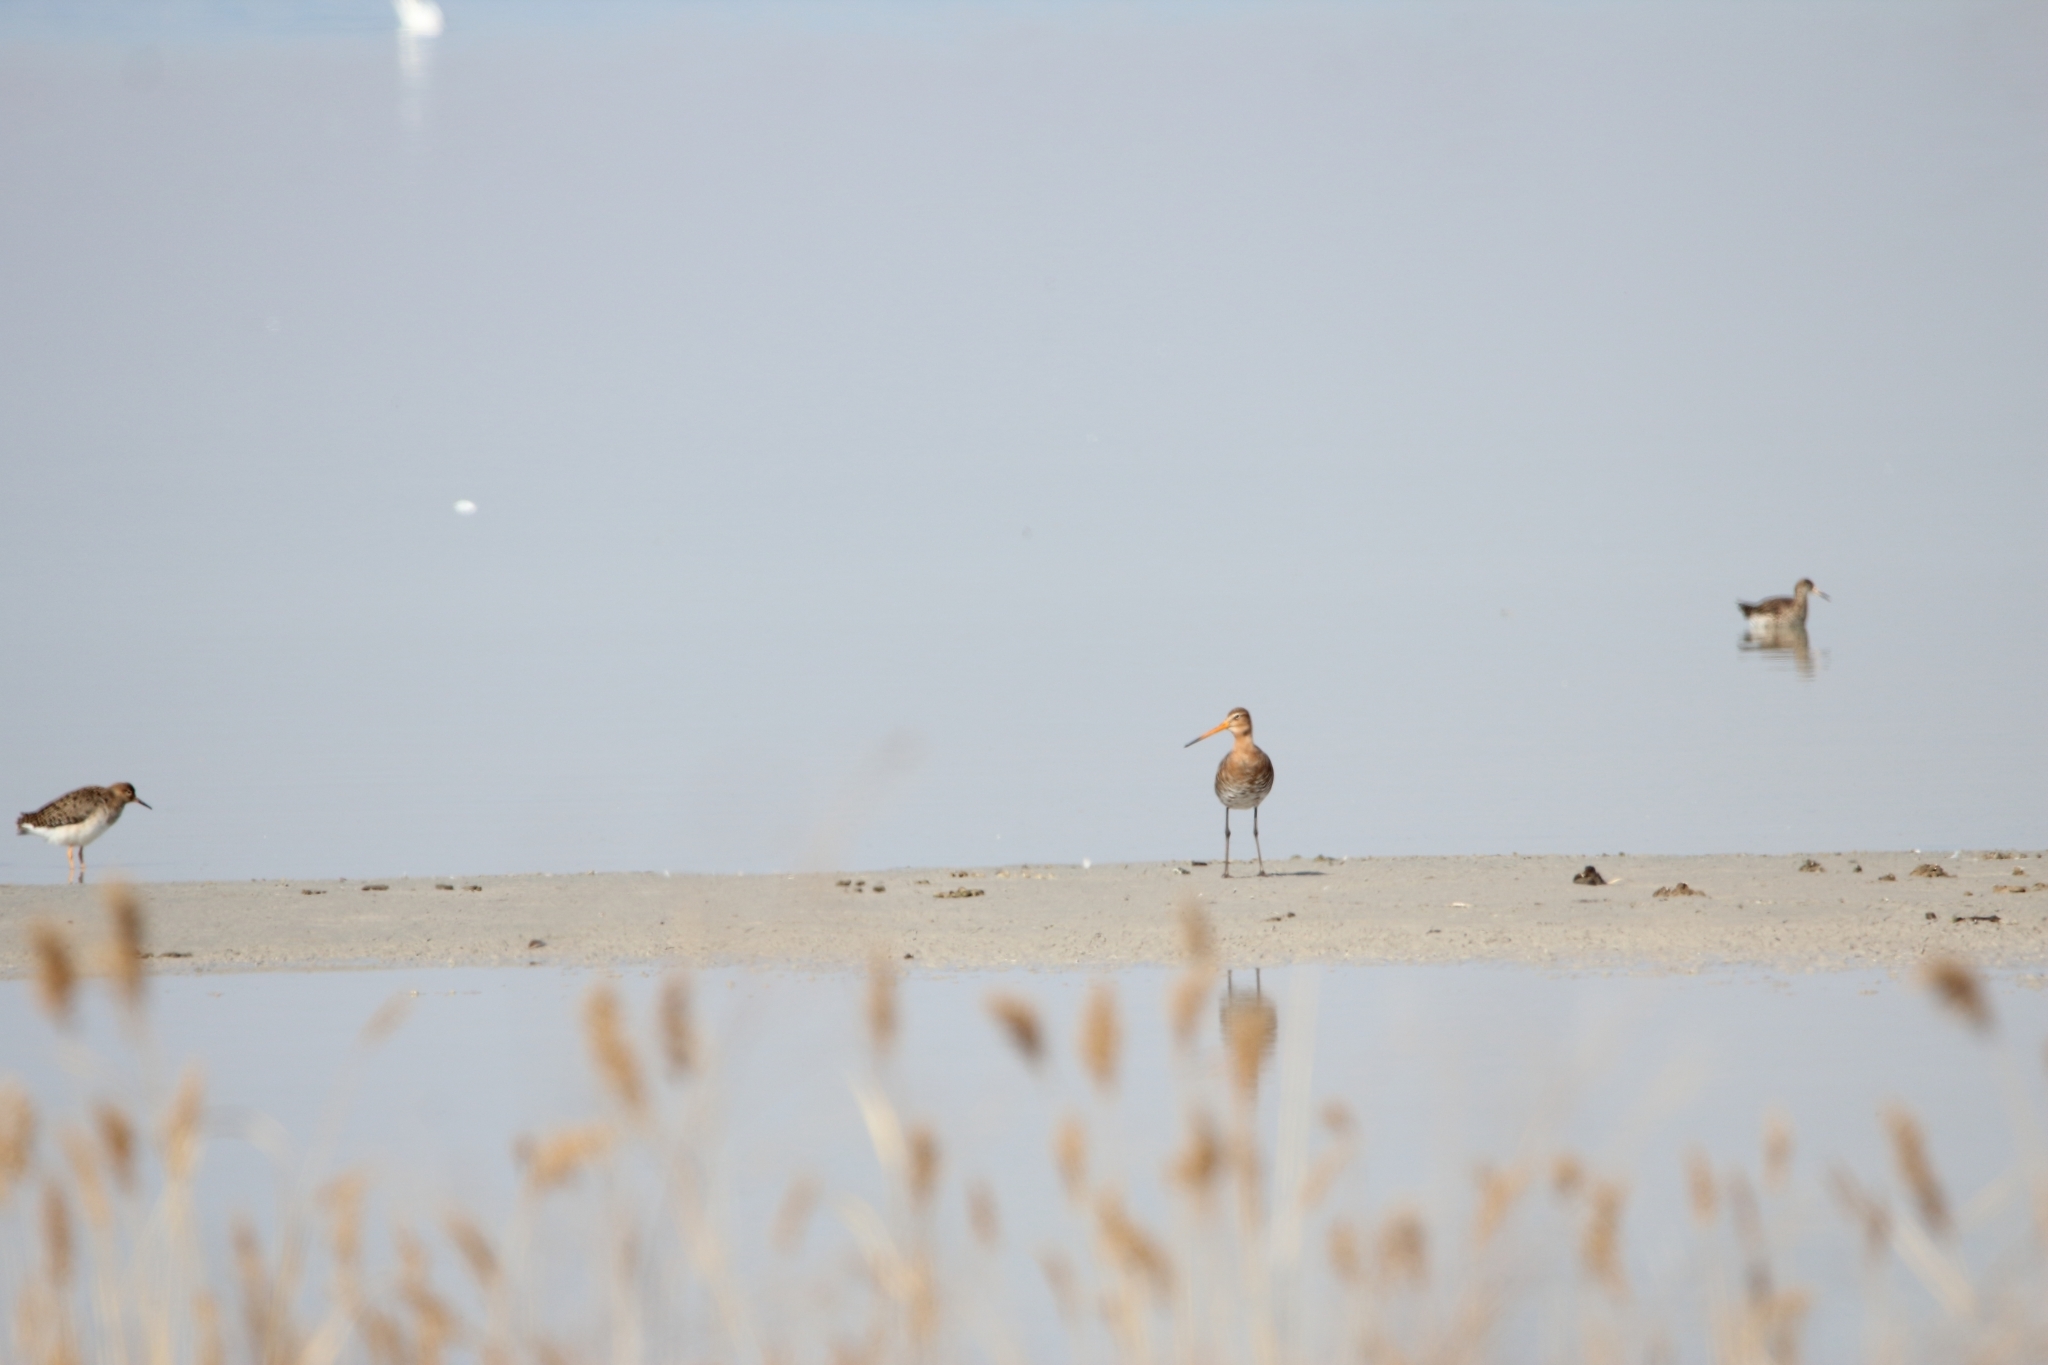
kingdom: Animalia
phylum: Chordata
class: Aves
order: Charadriiformes
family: Scolopacidae
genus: Limosa
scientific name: Limosa limosa
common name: Black-tailed godwit
